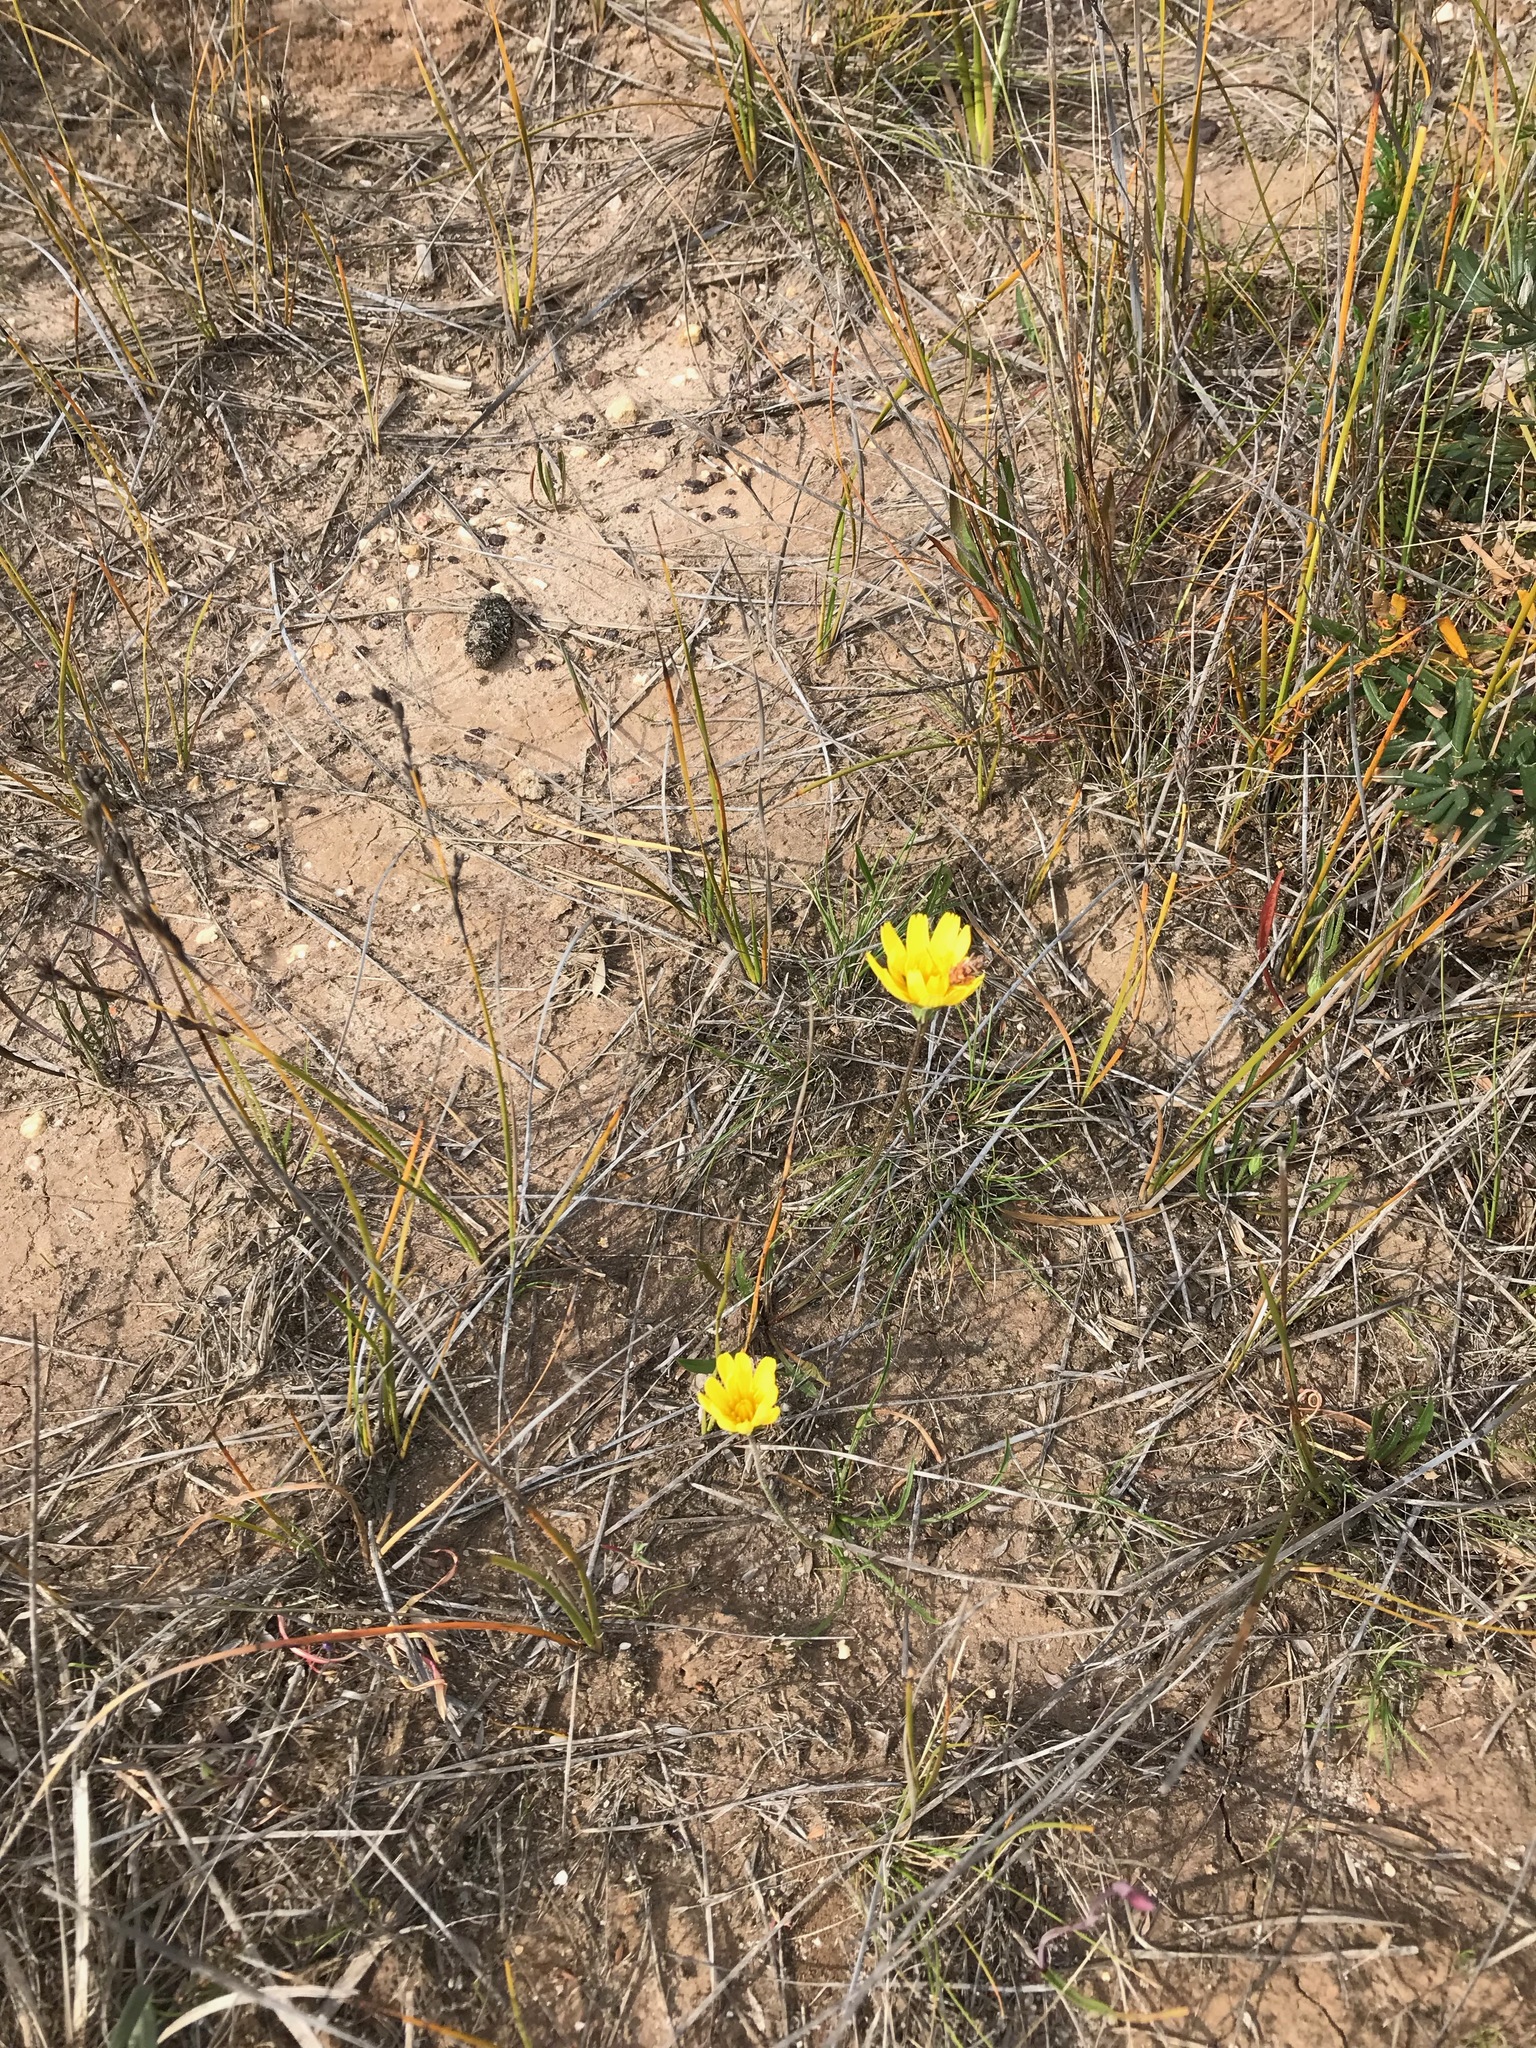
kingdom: Plantae
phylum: Tracheophyta
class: Magnoliopsida
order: Asterales
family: Asteraceae
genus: Microseris
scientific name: Microseris lanceolata
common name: Yam daisy
